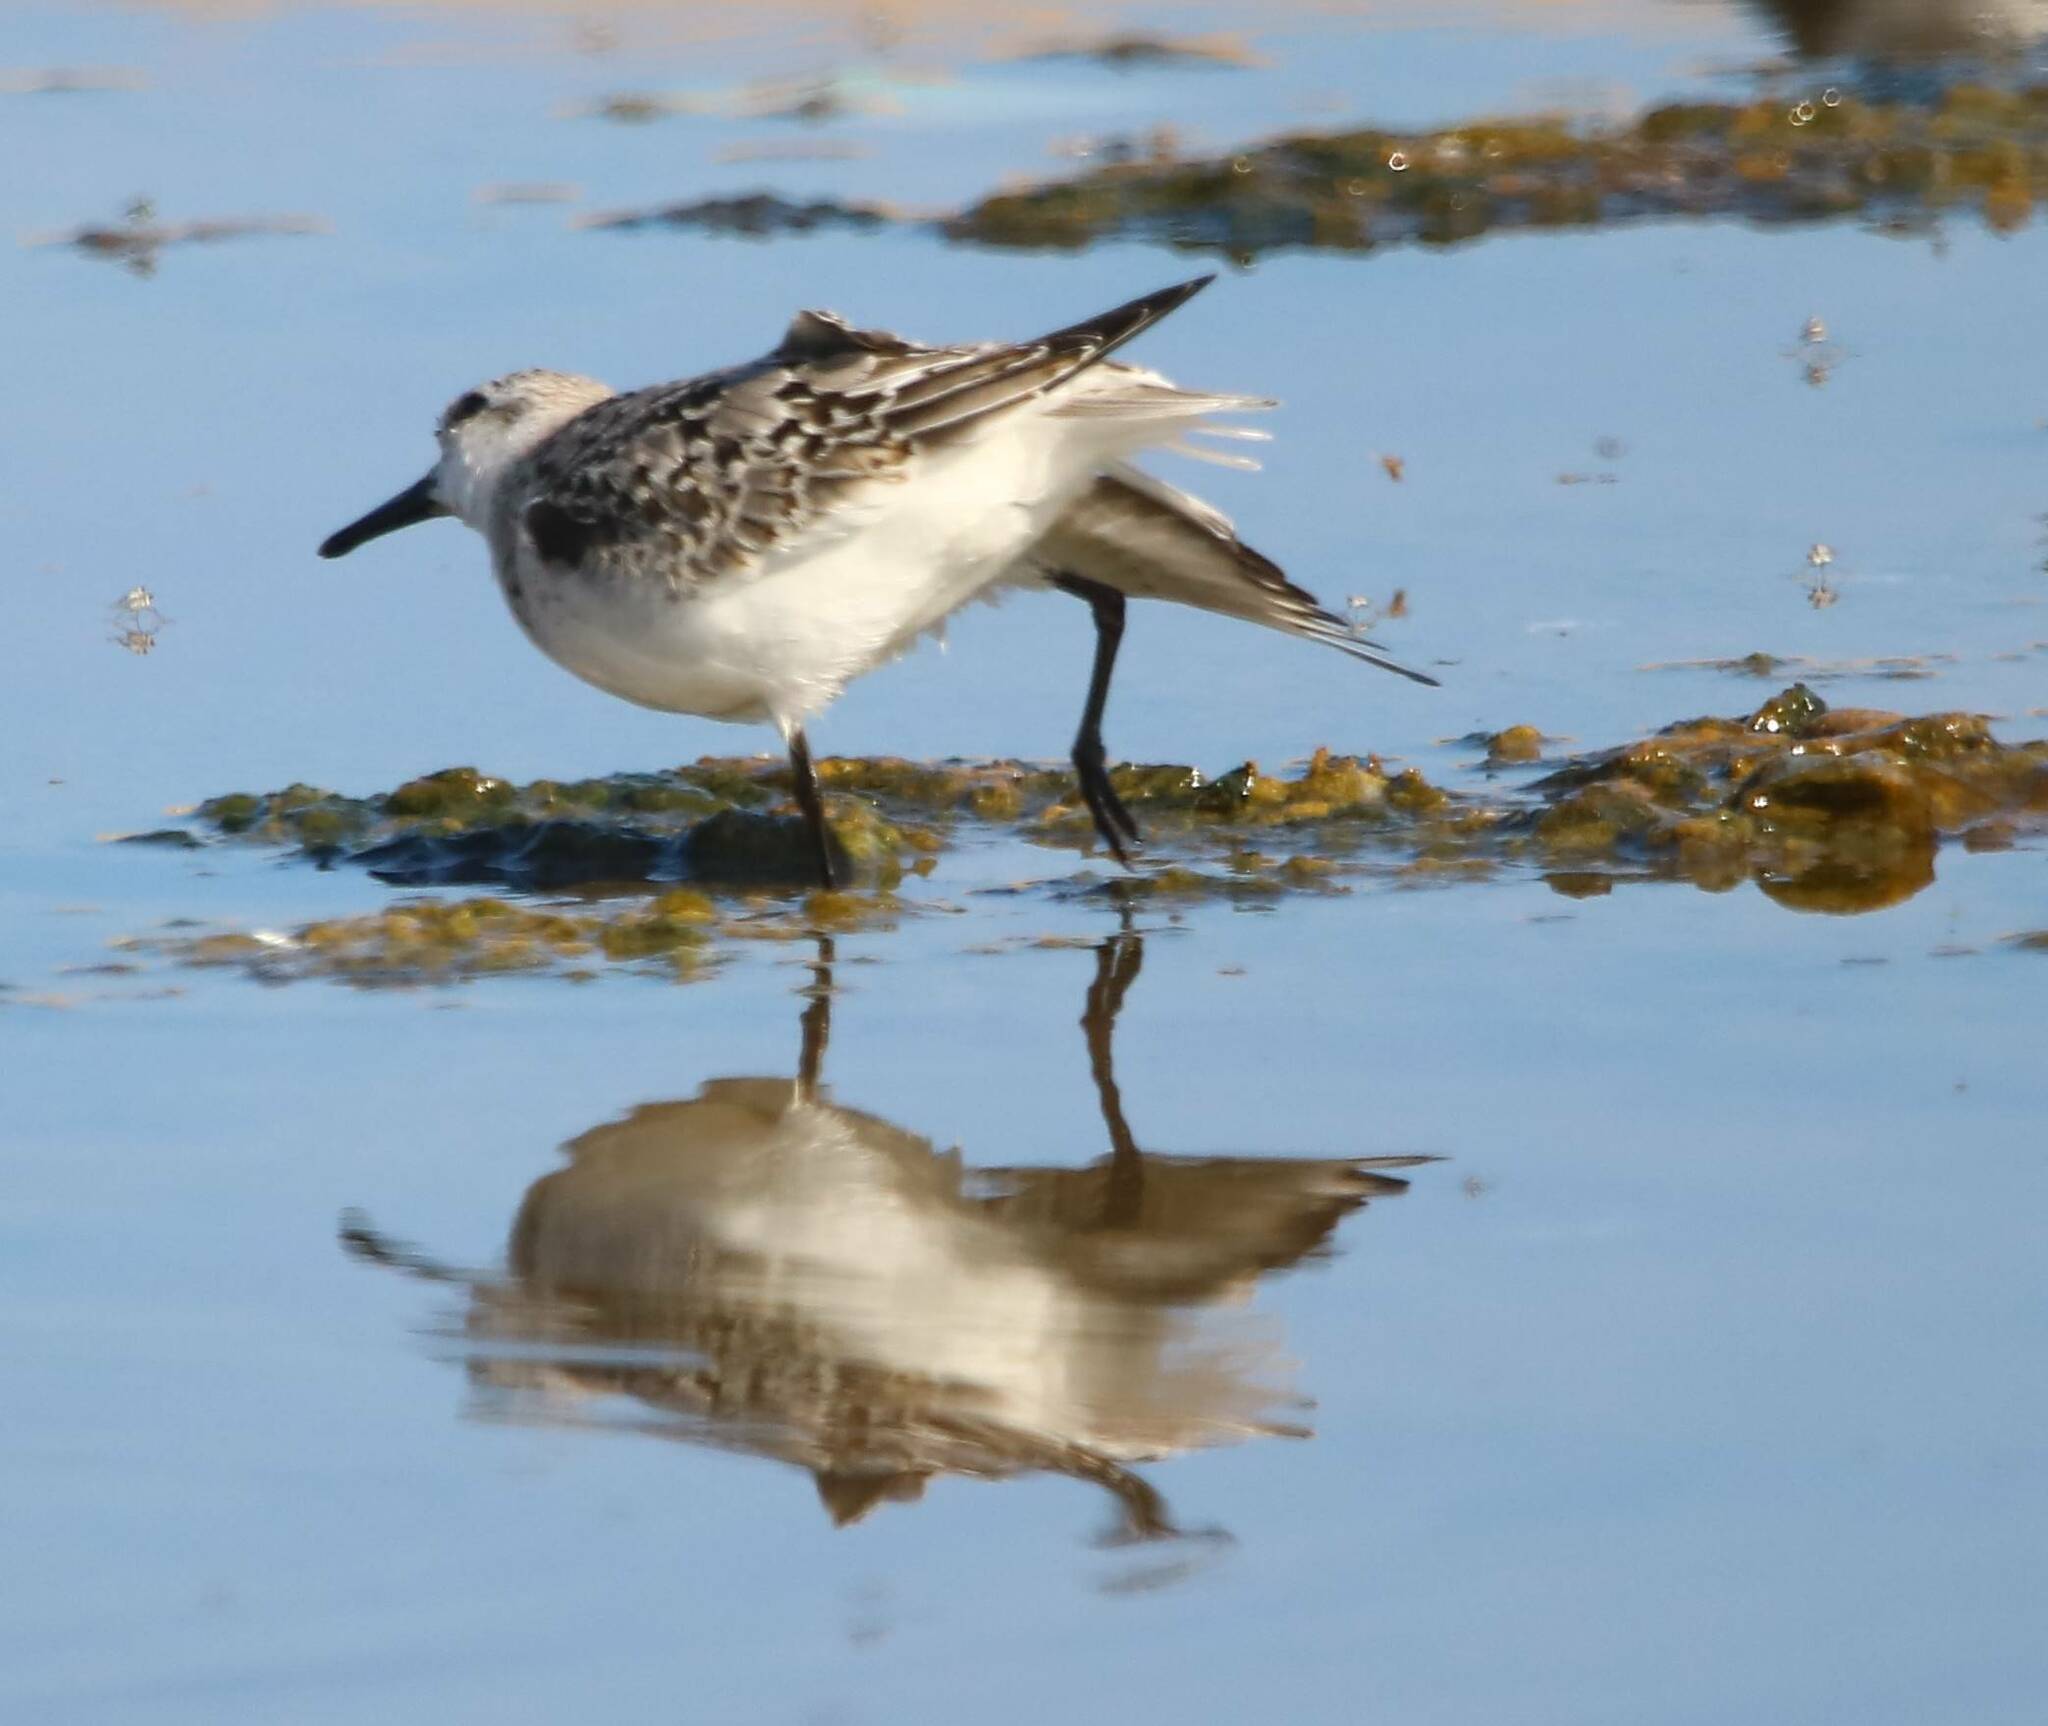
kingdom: Animalia
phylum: Chordata
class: Aves
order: Charadriiformes
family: Scolopacidae
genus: Calidris
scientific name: Calidris alba
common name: Sanderling
